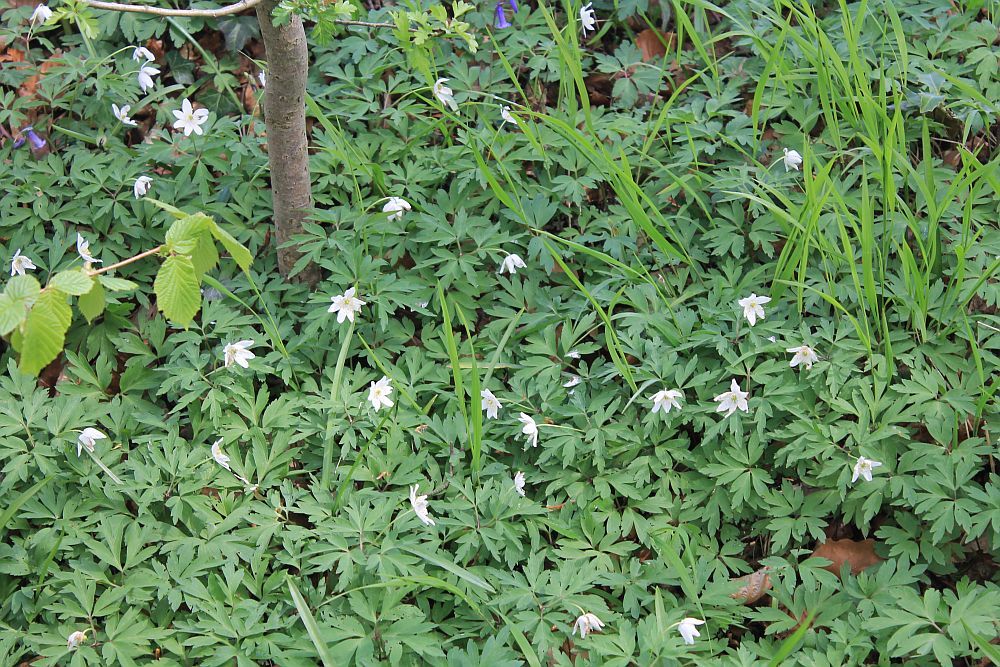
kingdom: Plantae
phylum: Tracheophyta
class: Magnoliopsida
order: Ranunculales
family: Ranunculaceae
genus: Anemone
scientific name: Anemone nemorosa
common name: Wood anemone
